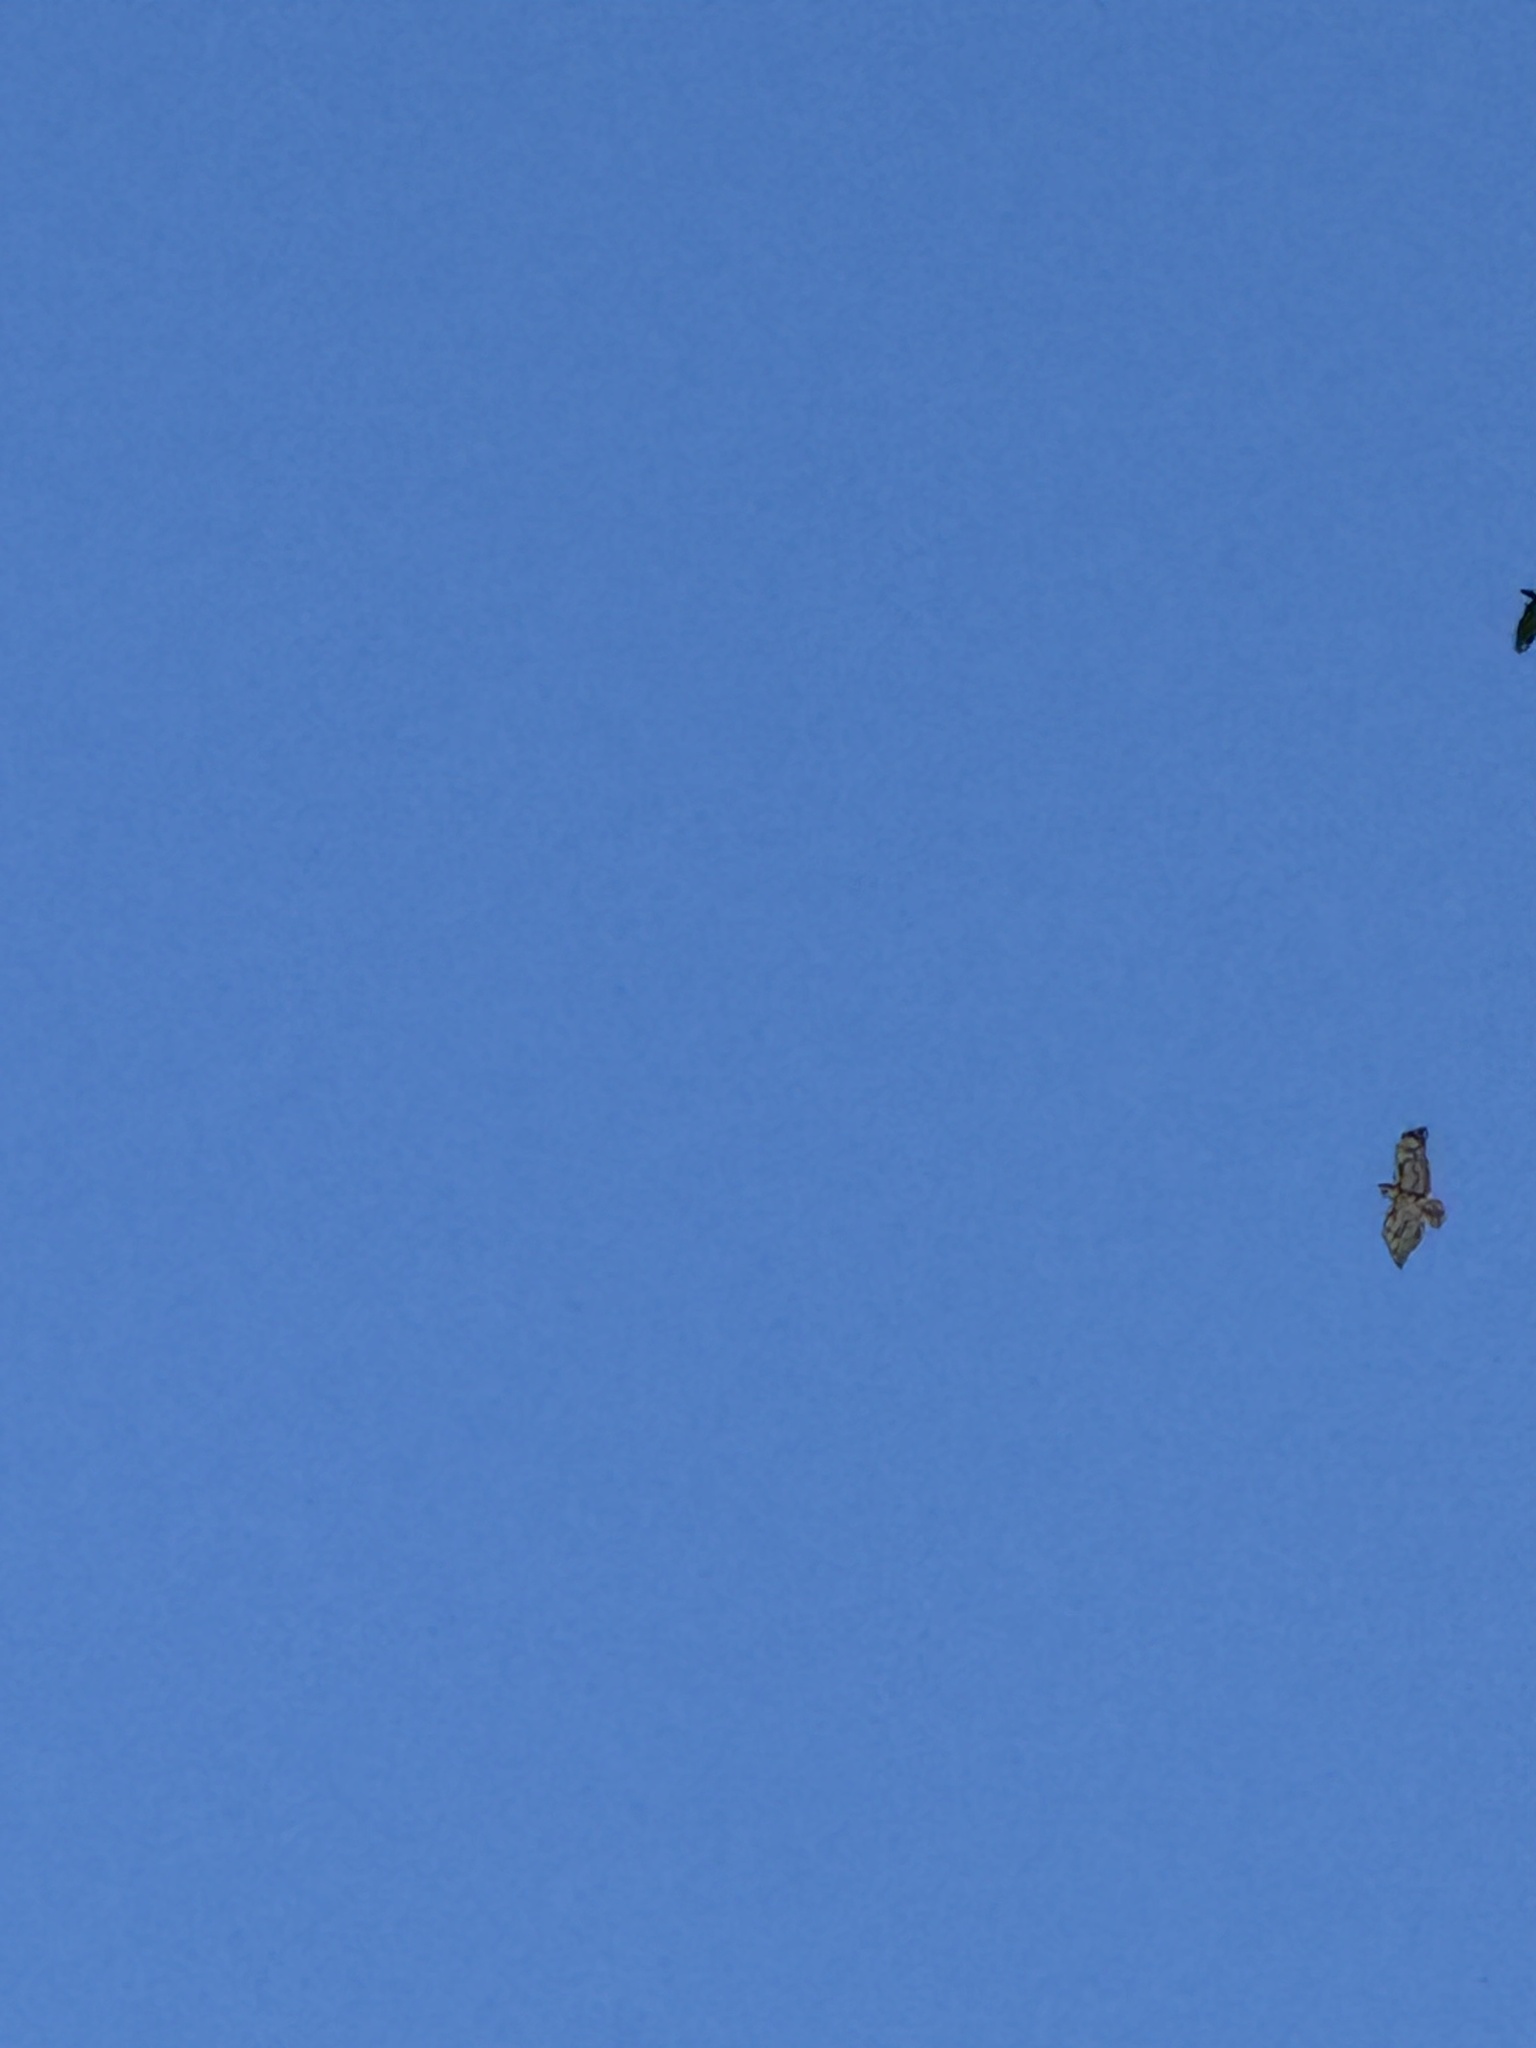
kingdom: Animalia
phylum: Chordata
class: Aves
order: Accipitriformes
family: Accipitridae
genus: Buteo
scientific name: Buteo jamaicensis
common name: Red-tailed hawk
